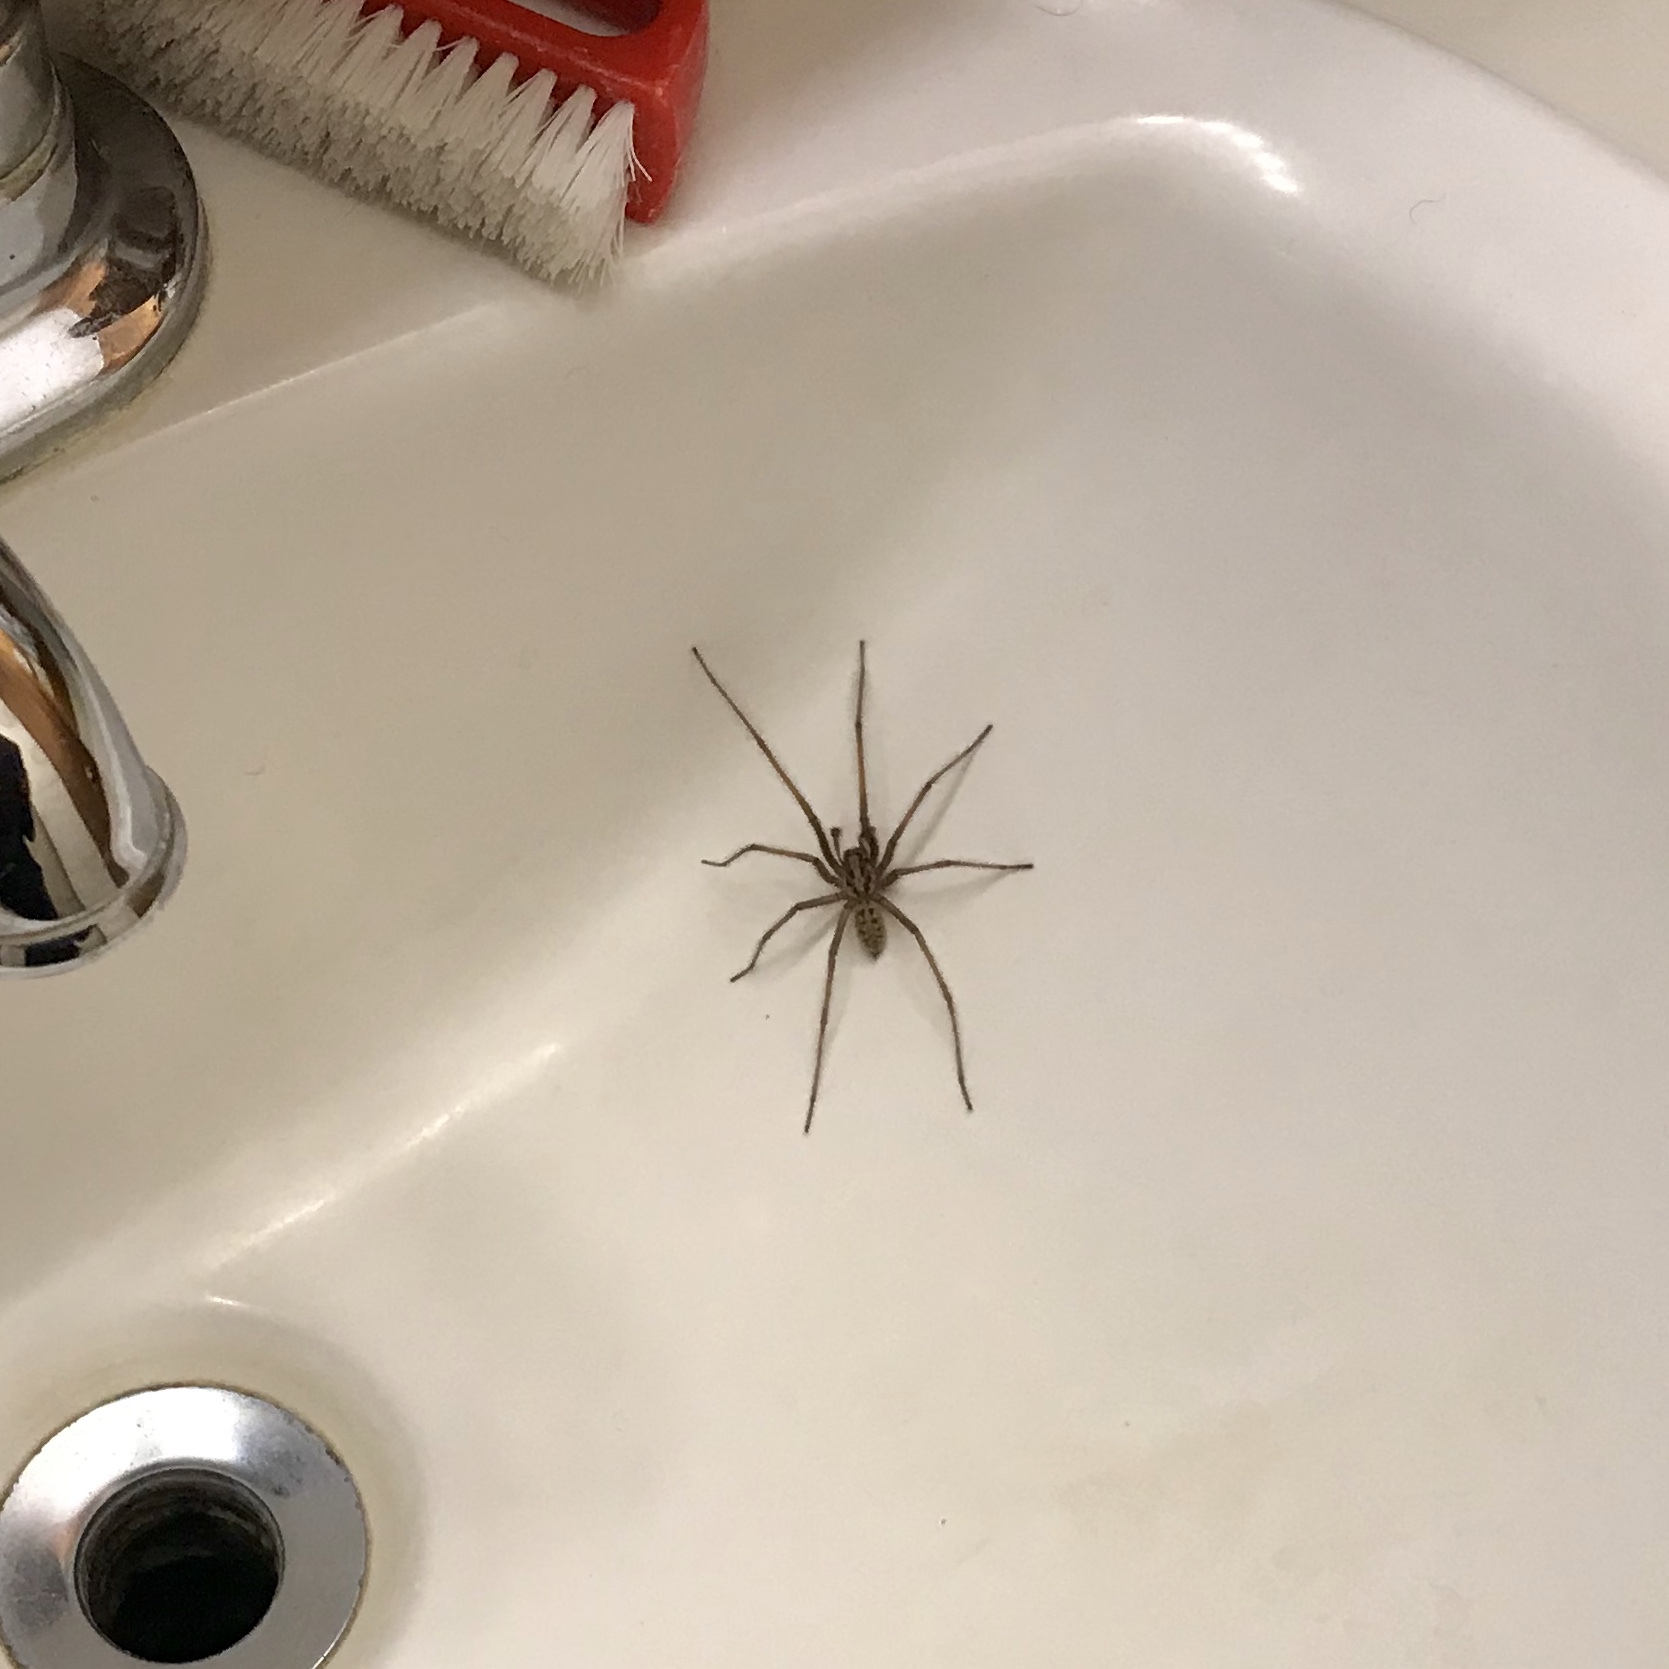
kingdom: Animalia
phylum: Arthropoda
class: Arachnida
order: Araneae
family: Agelenidae
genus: Eratigena
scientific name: Eratigena duellica
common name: Giant house spider
